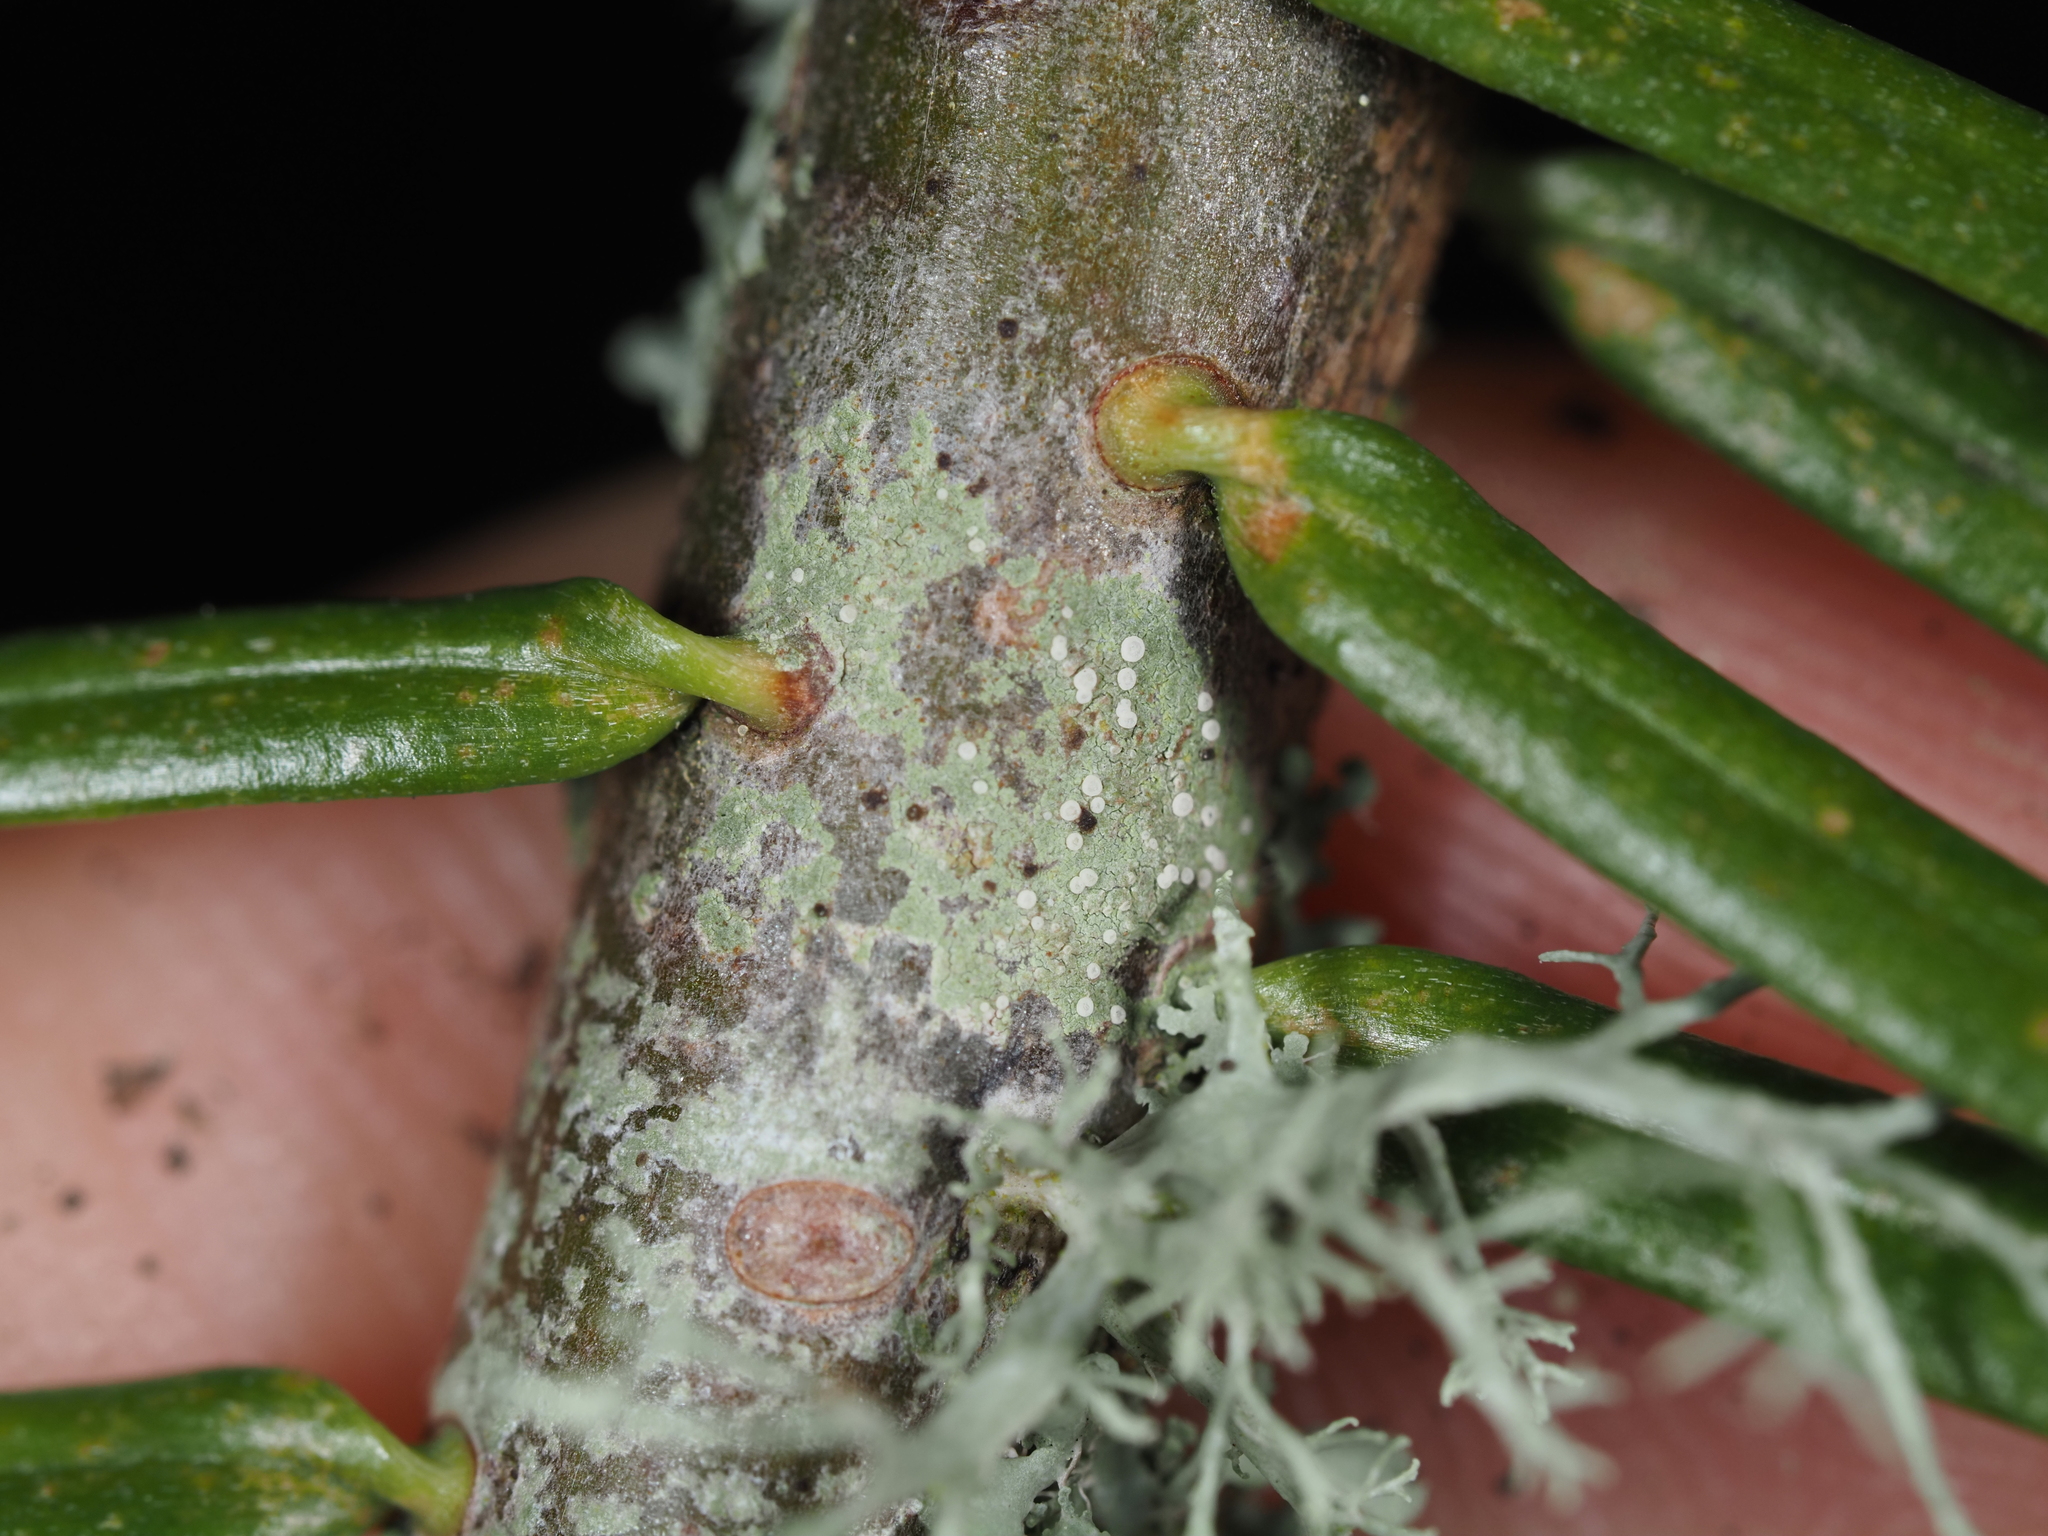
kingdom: Fungi
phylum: Ascomycota
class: Lecanoromycetes
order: Lecanorales
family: Byssolomataceae
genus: Fellhanera
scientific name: Fellhanera bouteillei
